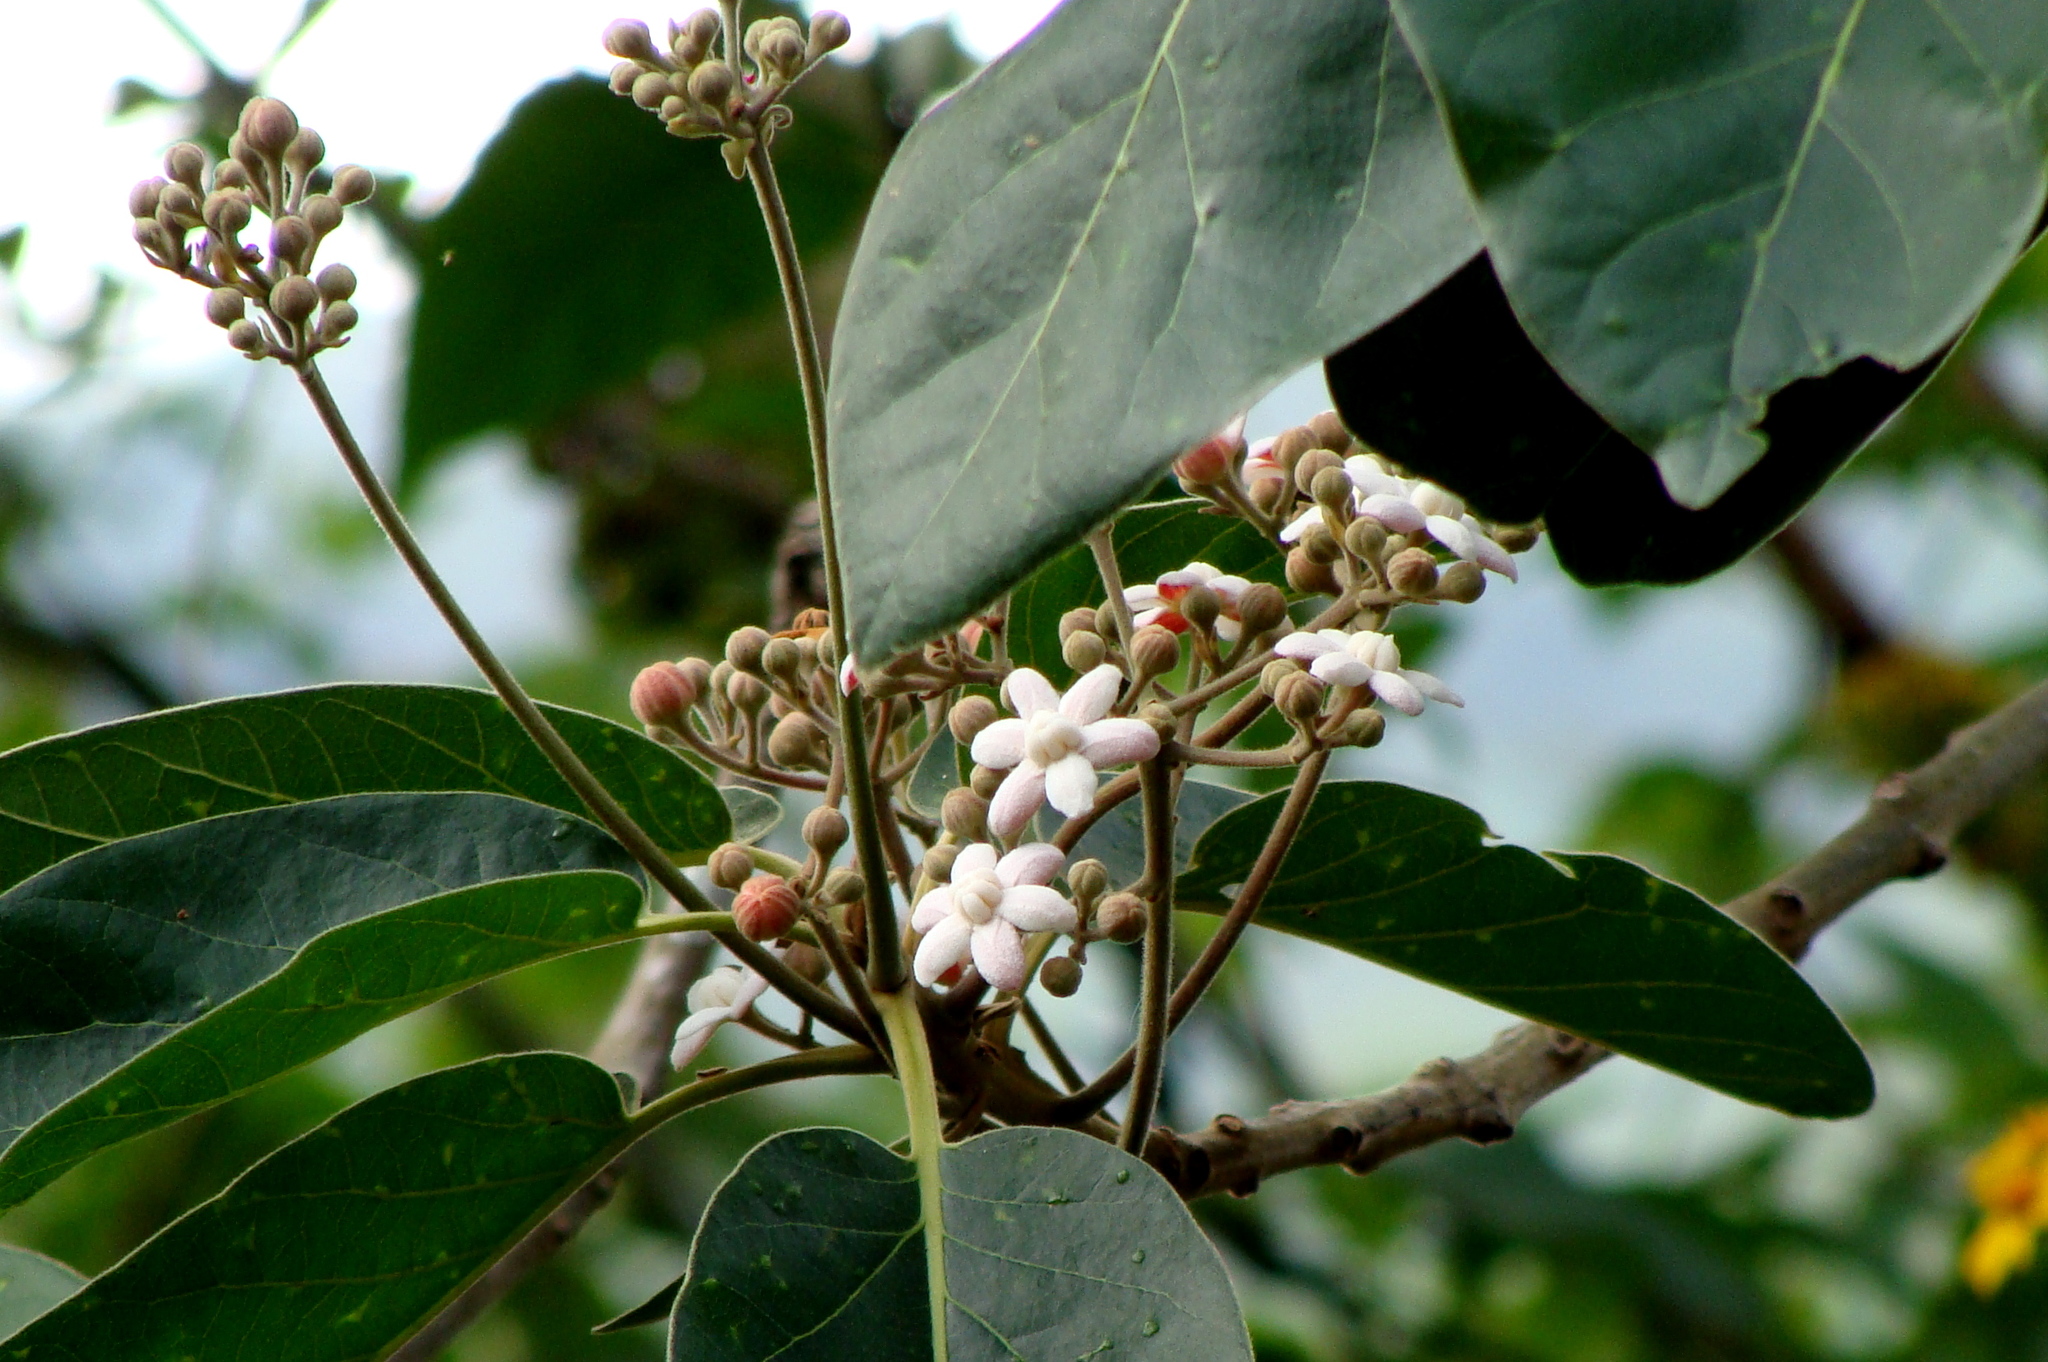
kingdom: Plantae
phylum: Tracheophyta
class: Magnoliopsida
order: Laurales
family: Lauraceae
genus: Ocotea
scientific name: Ocotea sinuata
